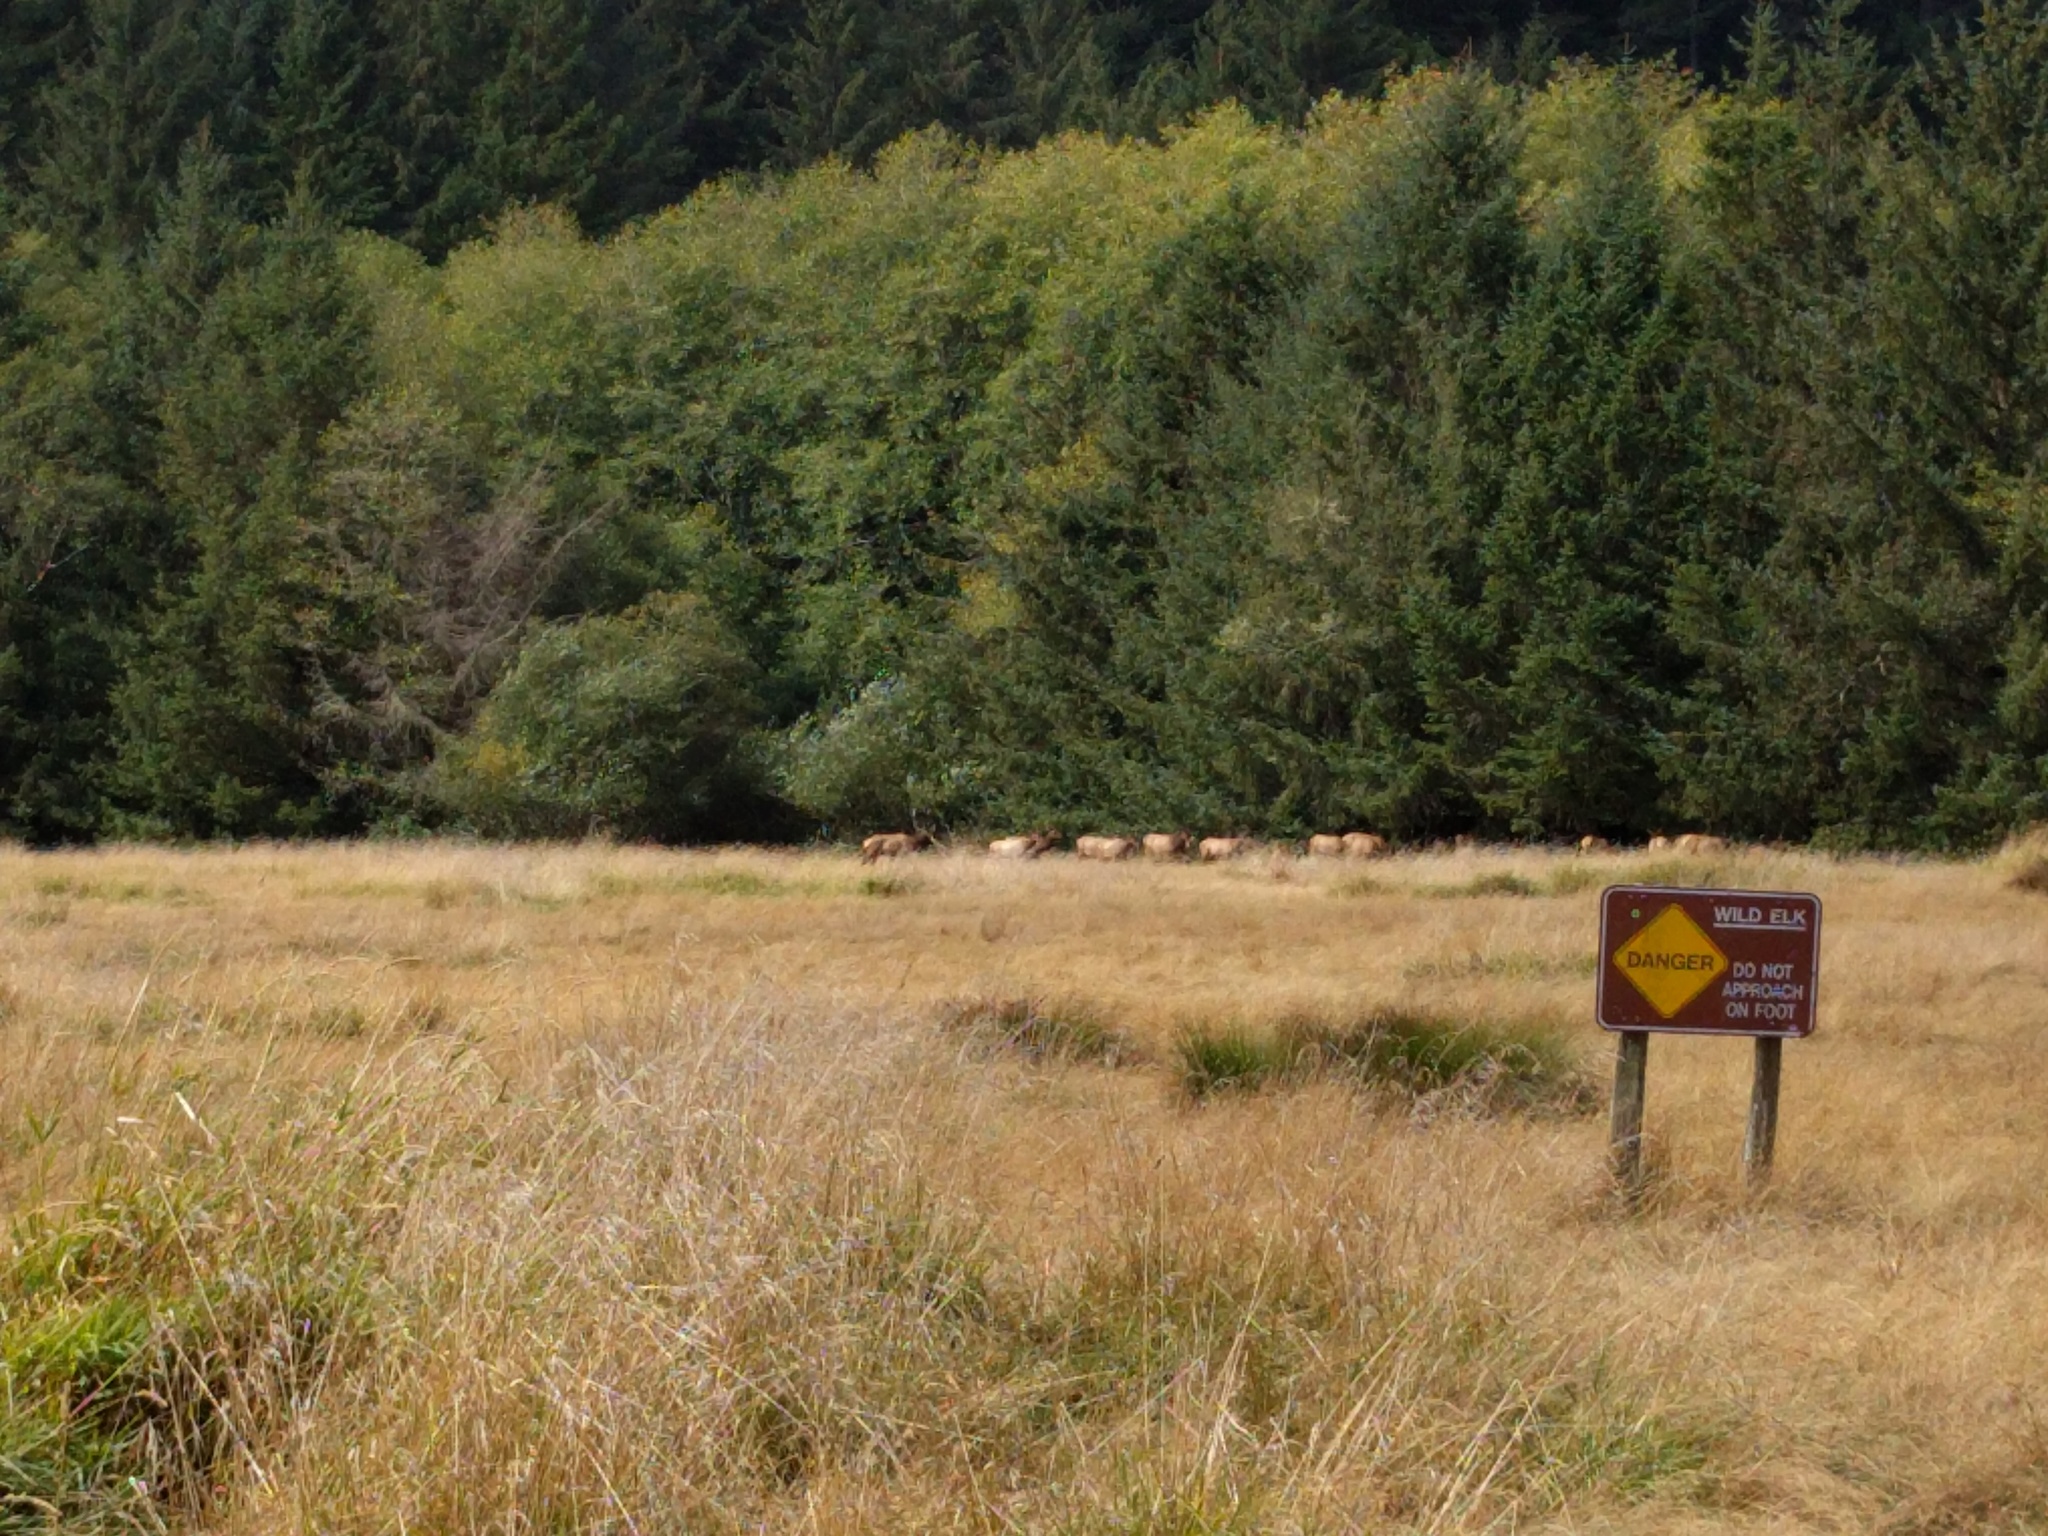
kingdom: Animalia
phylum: Chordata
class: Mammalia
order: Artiodactyla
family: Cervidae
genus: Cervus
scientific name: Cervus elaphus
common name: Red deer
